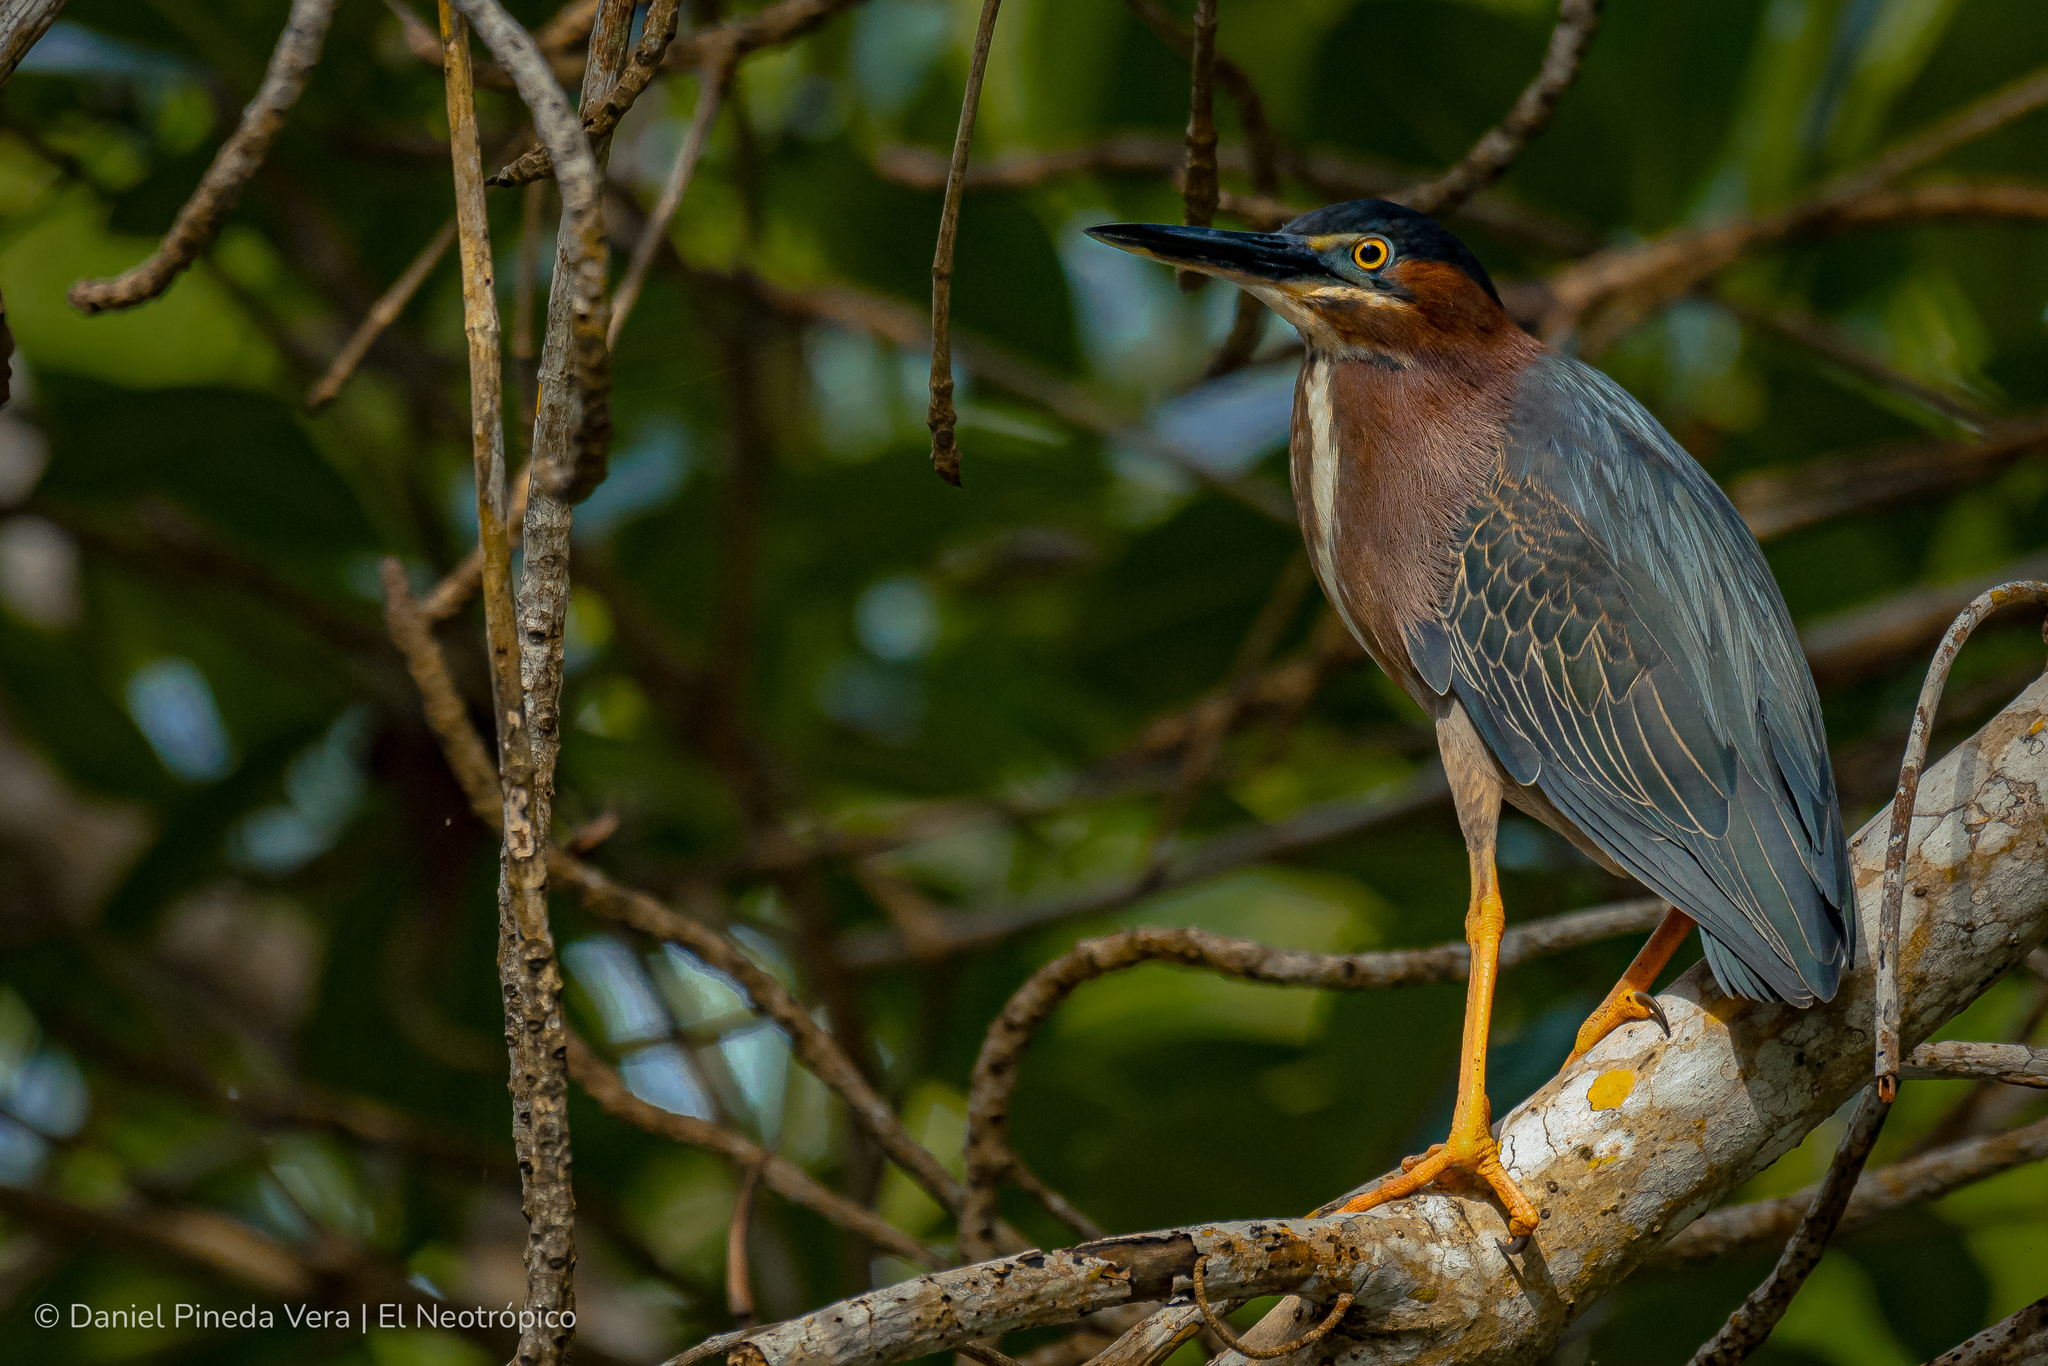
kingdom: Animalia
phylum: Chordata
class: Aves
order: Pelecaniformes
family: Ardeidae
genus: Butorides
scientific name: Butorides virescens
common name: Green heron
